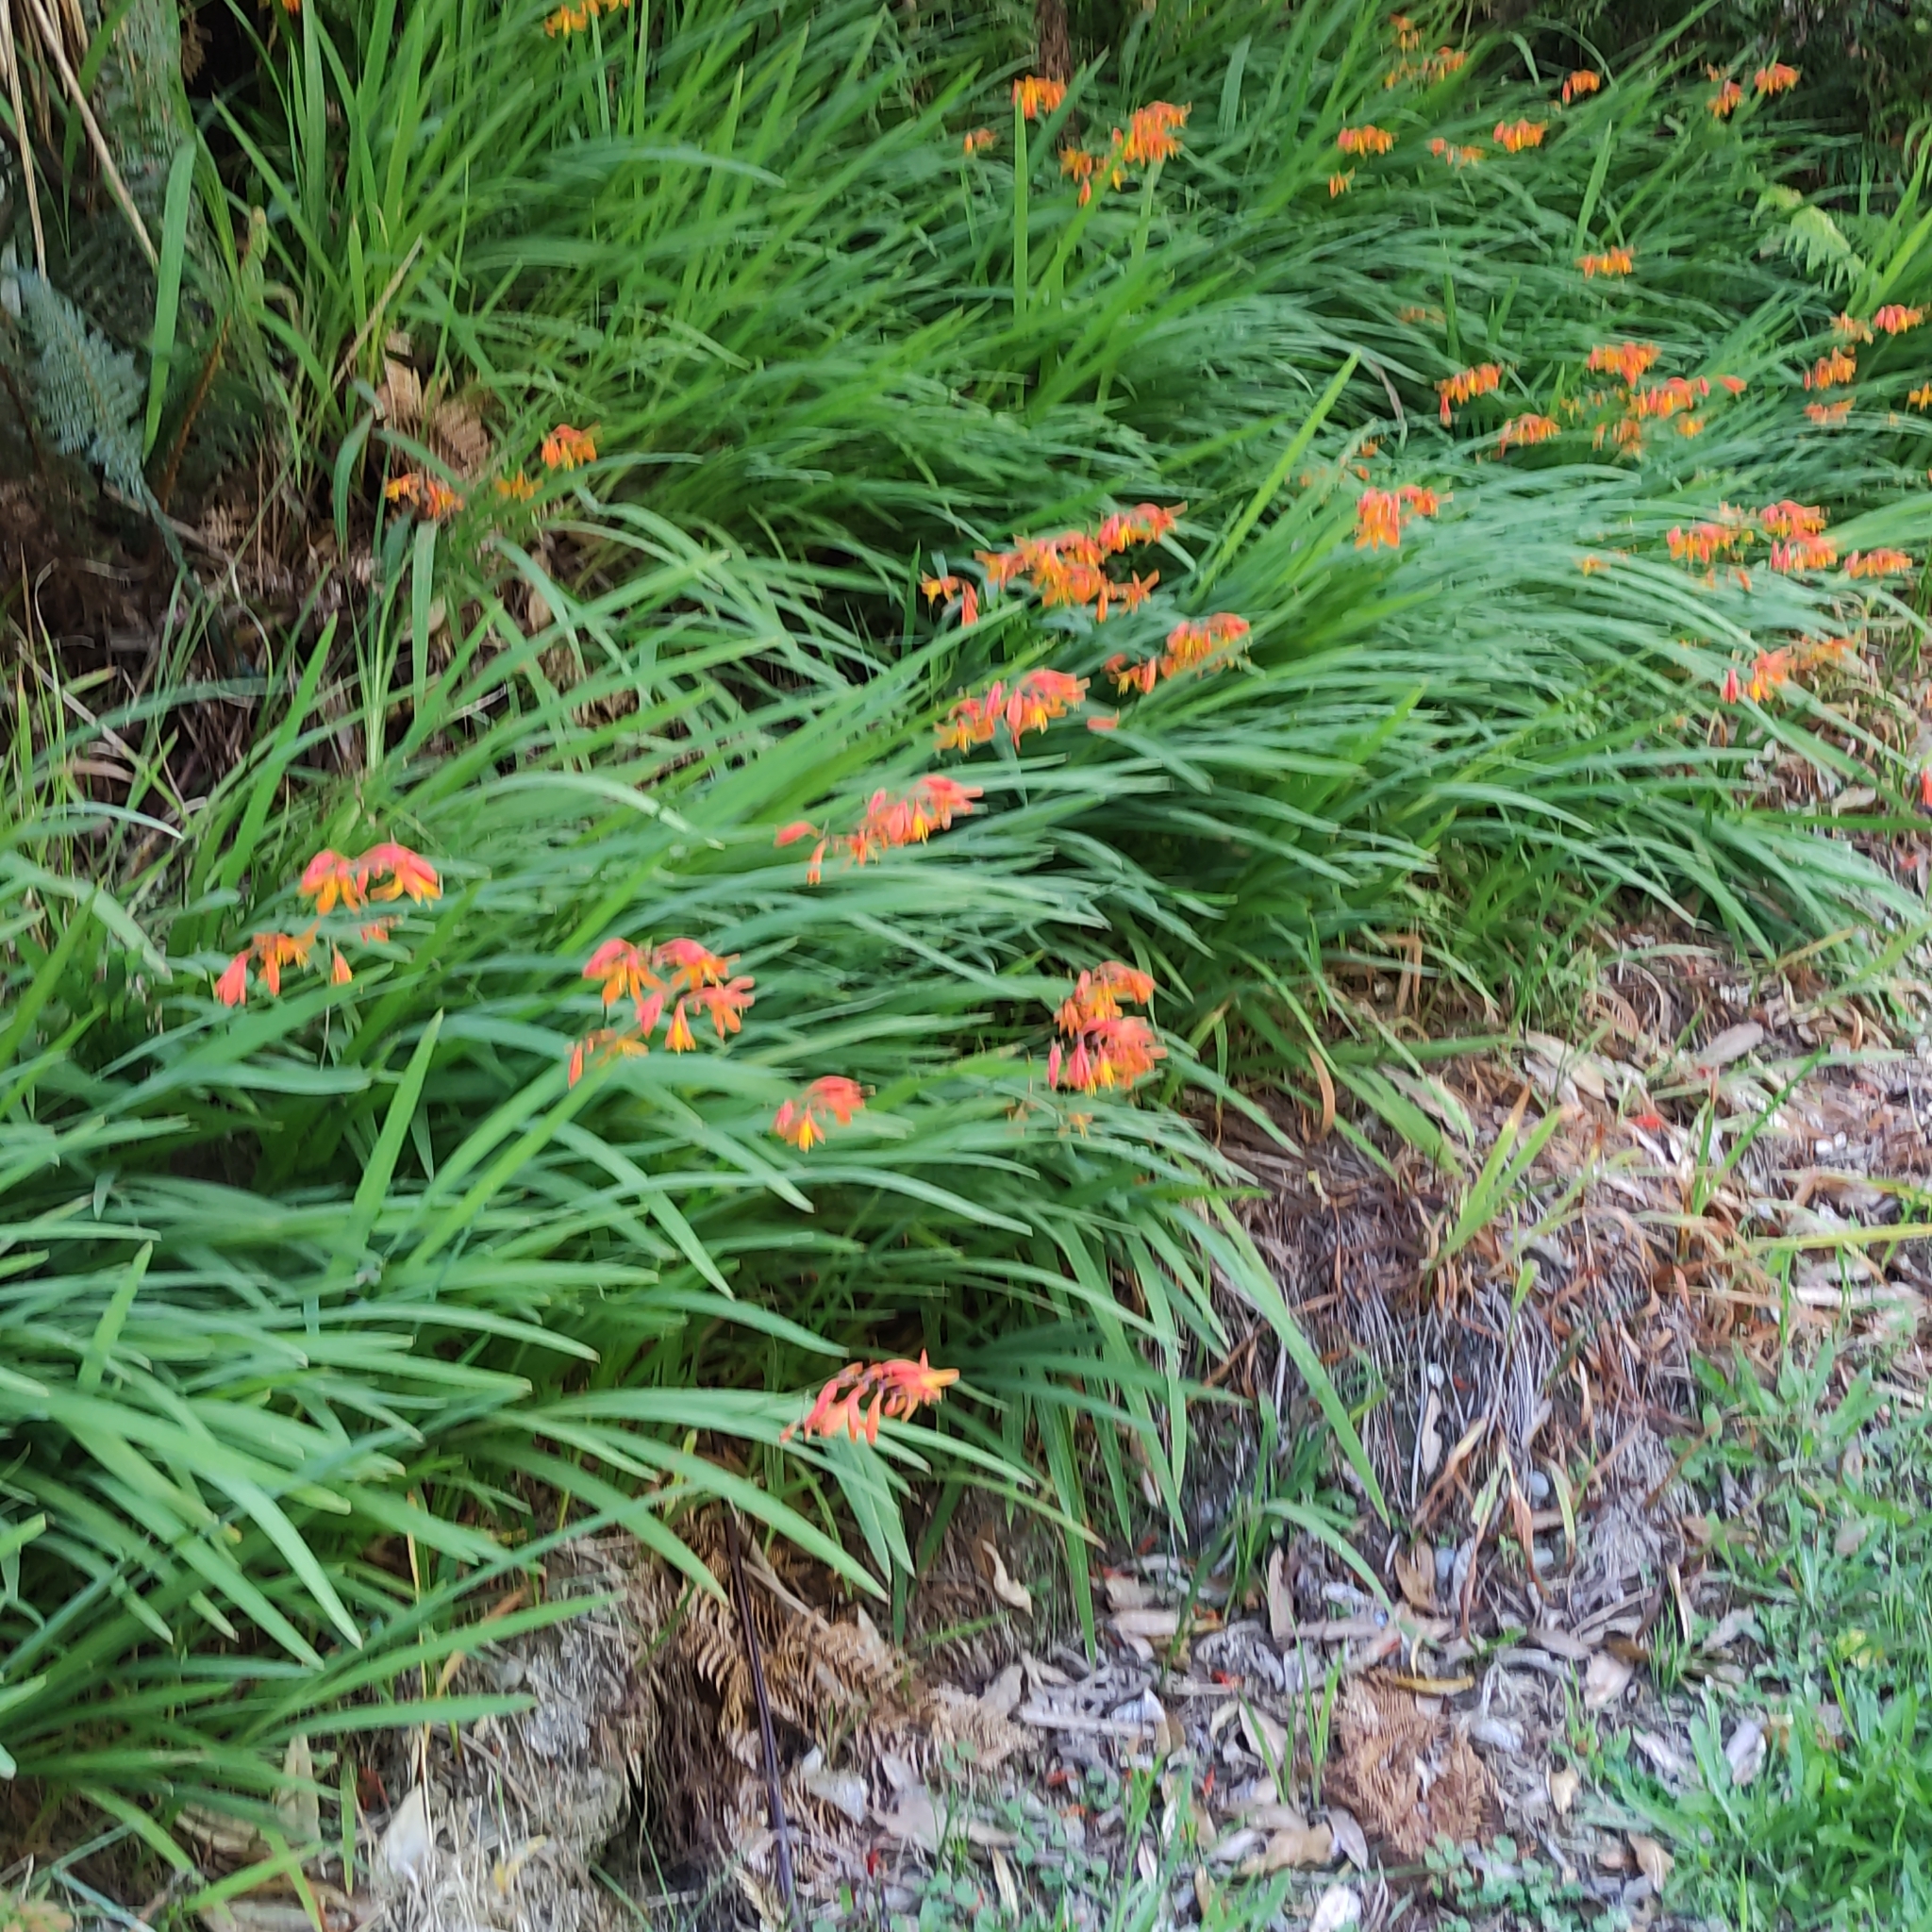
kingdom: Plantae
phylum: Tracheophyta
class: Liliopsida
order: Asparagales
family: Iridaceae
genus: Crocosmia
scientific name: Crocosmia crocosmiiflora
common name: Montbretia
